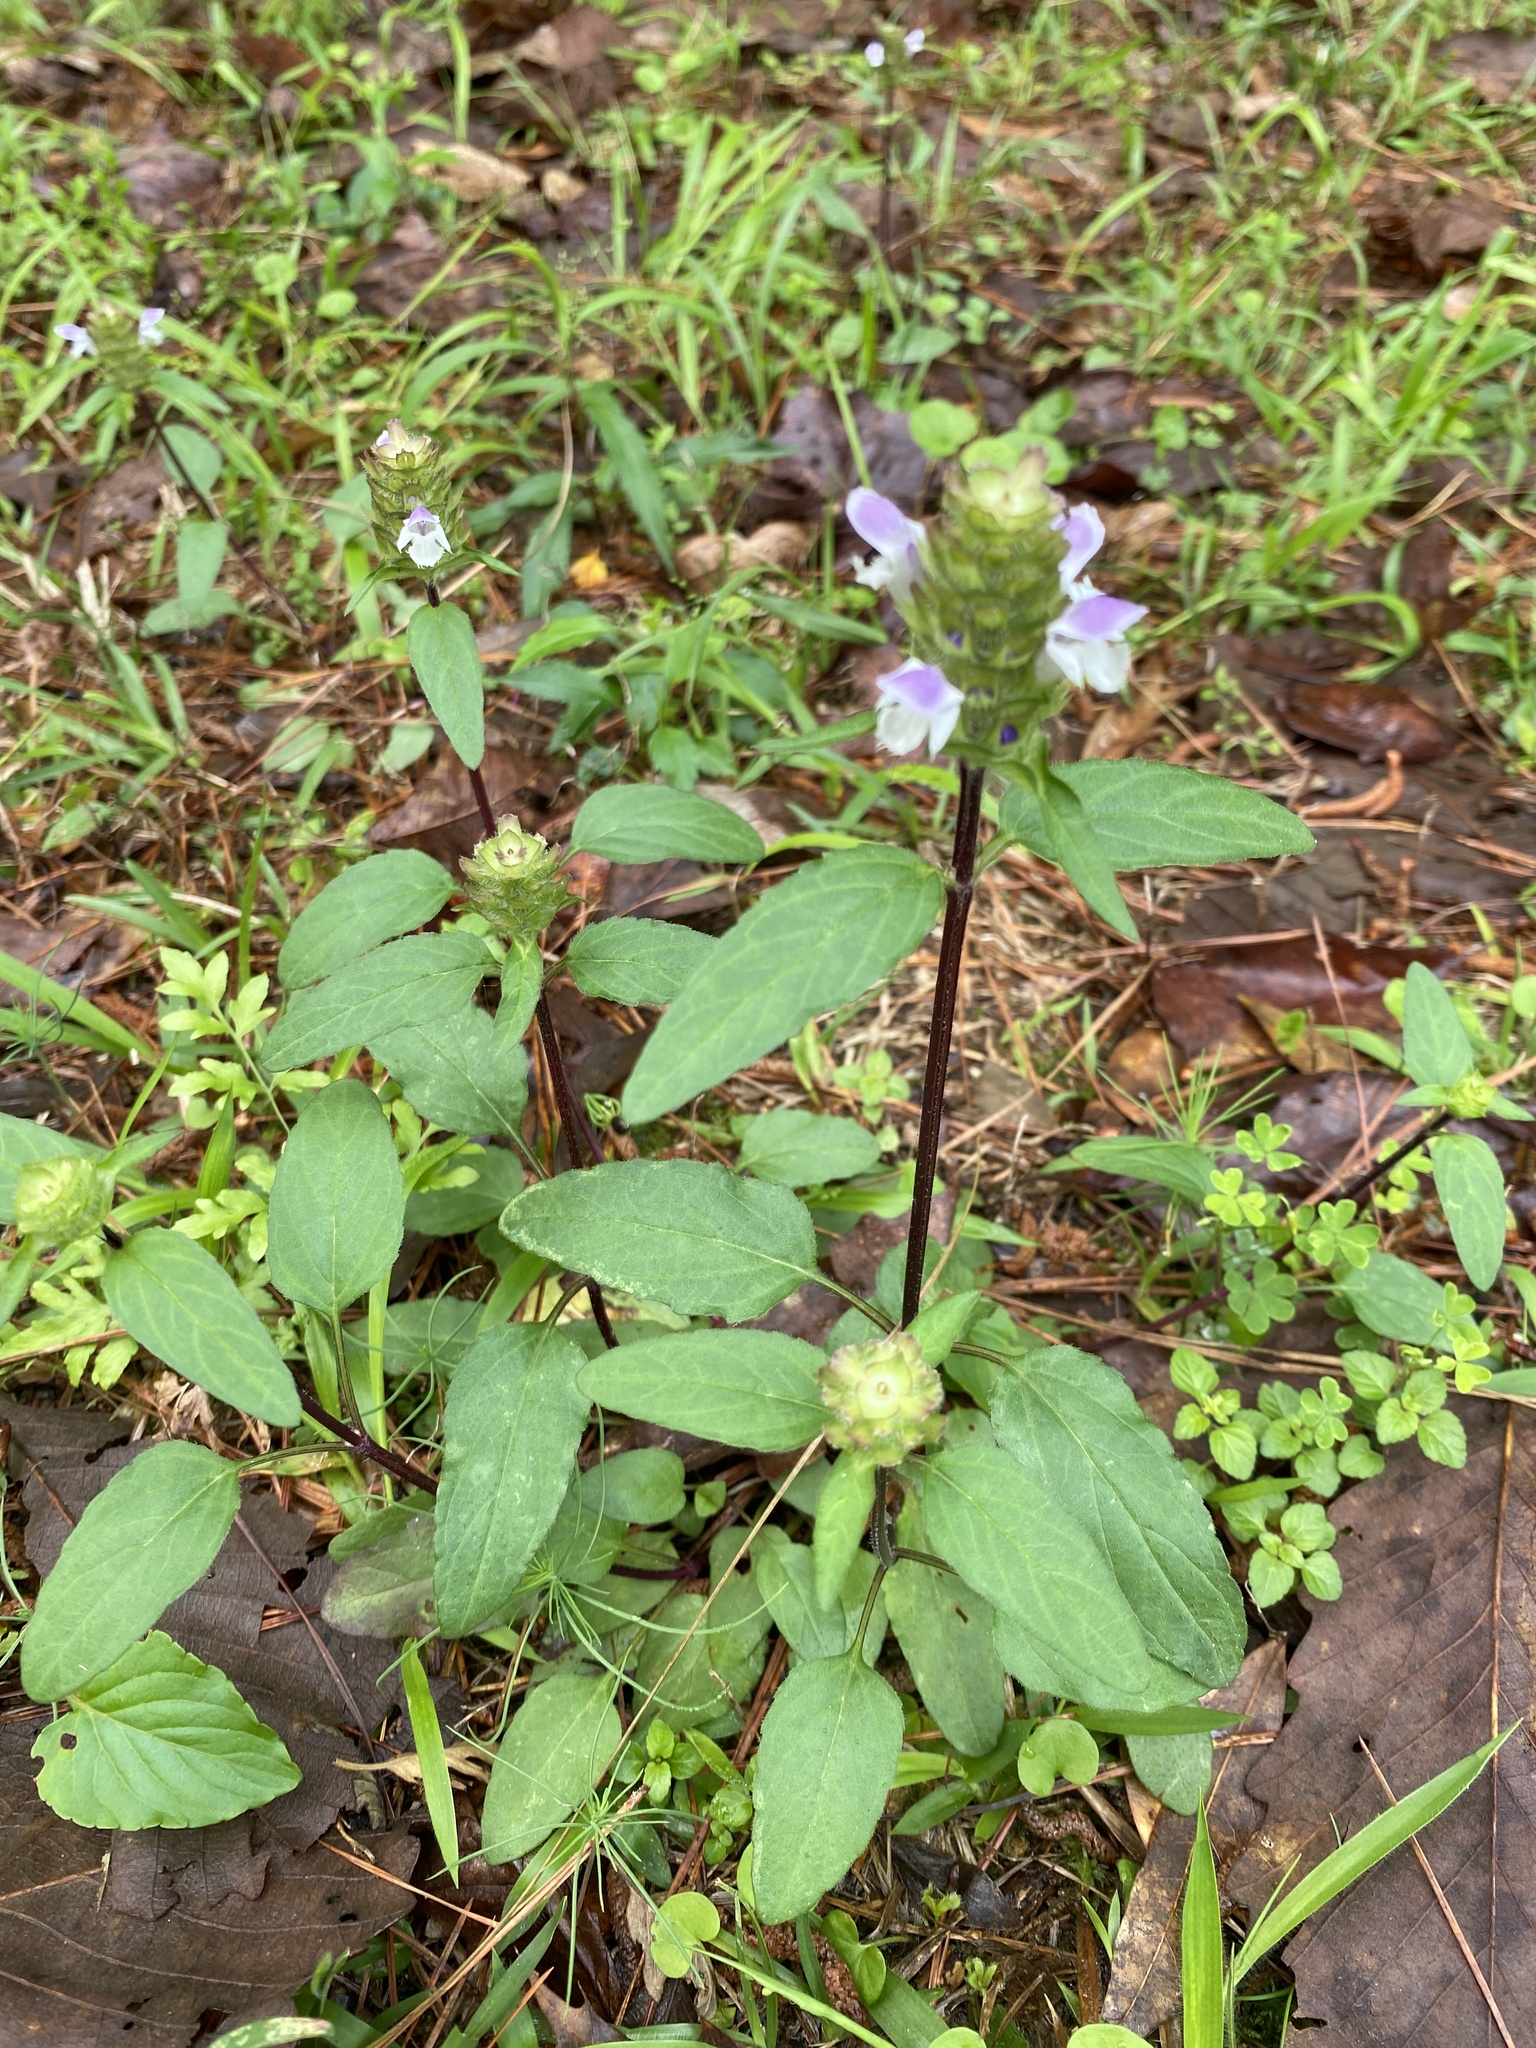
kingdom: Plantae
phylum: Tracheophyta
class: Magnoliopsida
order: Lamiales
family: Lamiaceae
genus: Prunella
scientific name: Prunella vulgaris
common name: Heal-all
